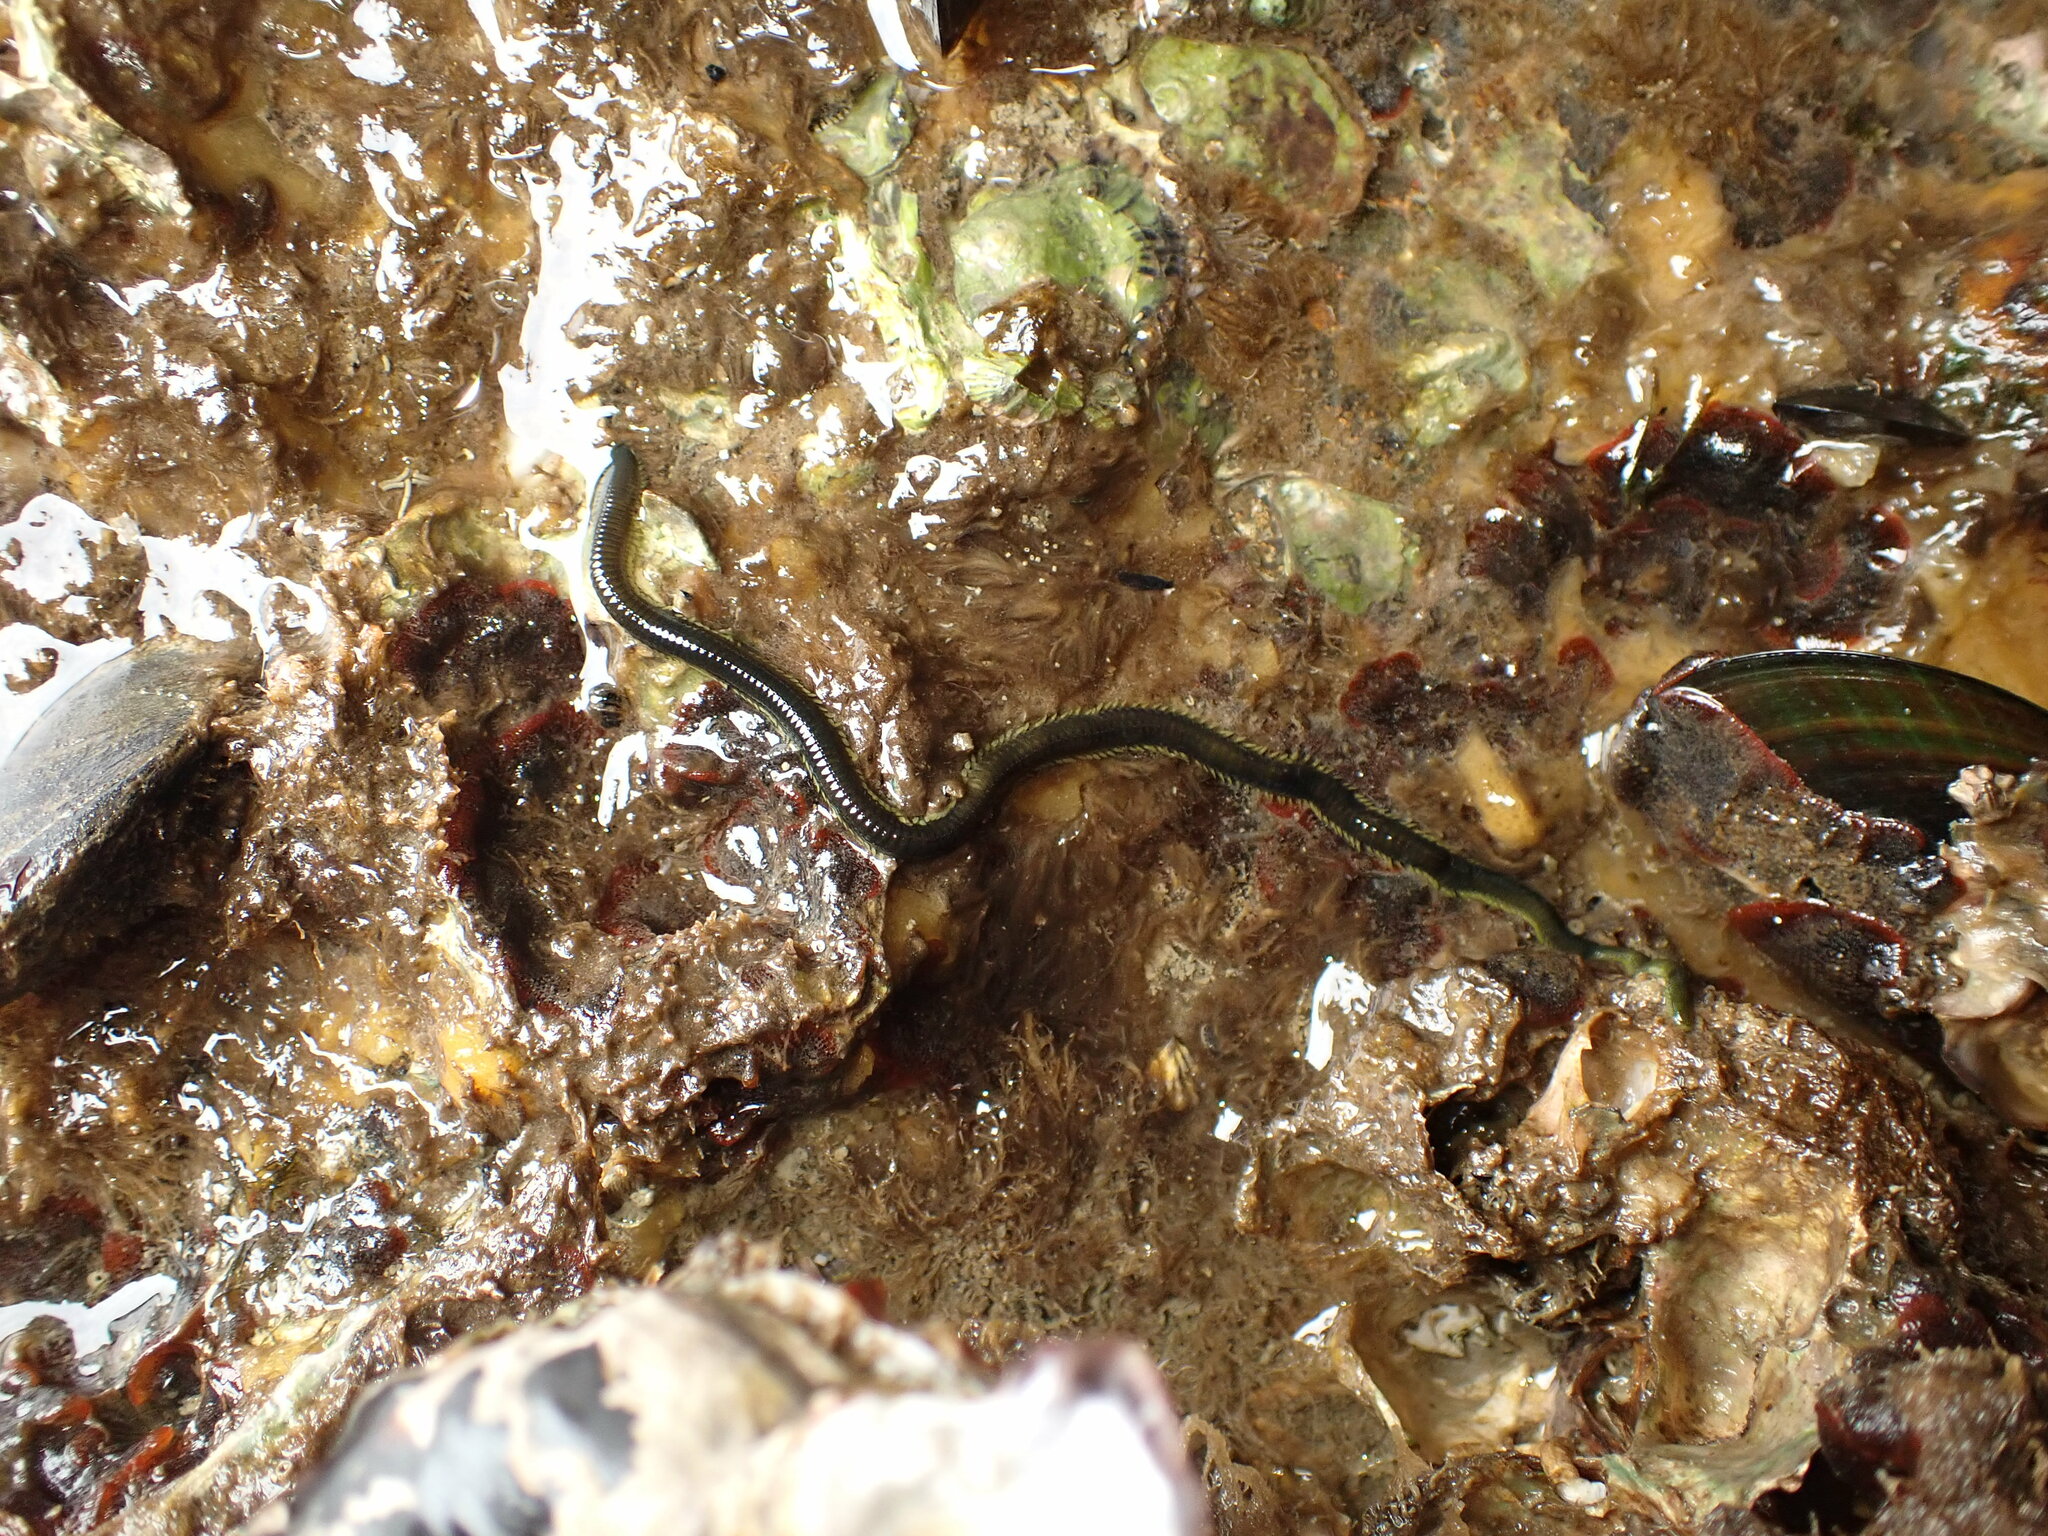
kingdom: Animalia
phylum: Annelida
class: Polychaeta
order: Phyllodocida
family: Phyllodocidae
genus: Eulalia
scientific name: Eulalia microphylla
